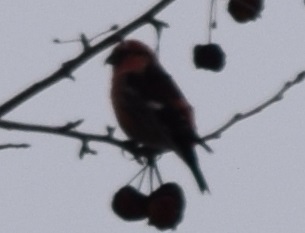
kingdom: Animalia
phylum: Chordata
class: Aves
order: Passeriformes
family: Fringillidae
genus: Loxia
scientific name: Loxia leucoptera
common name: Two-barred crossbill
